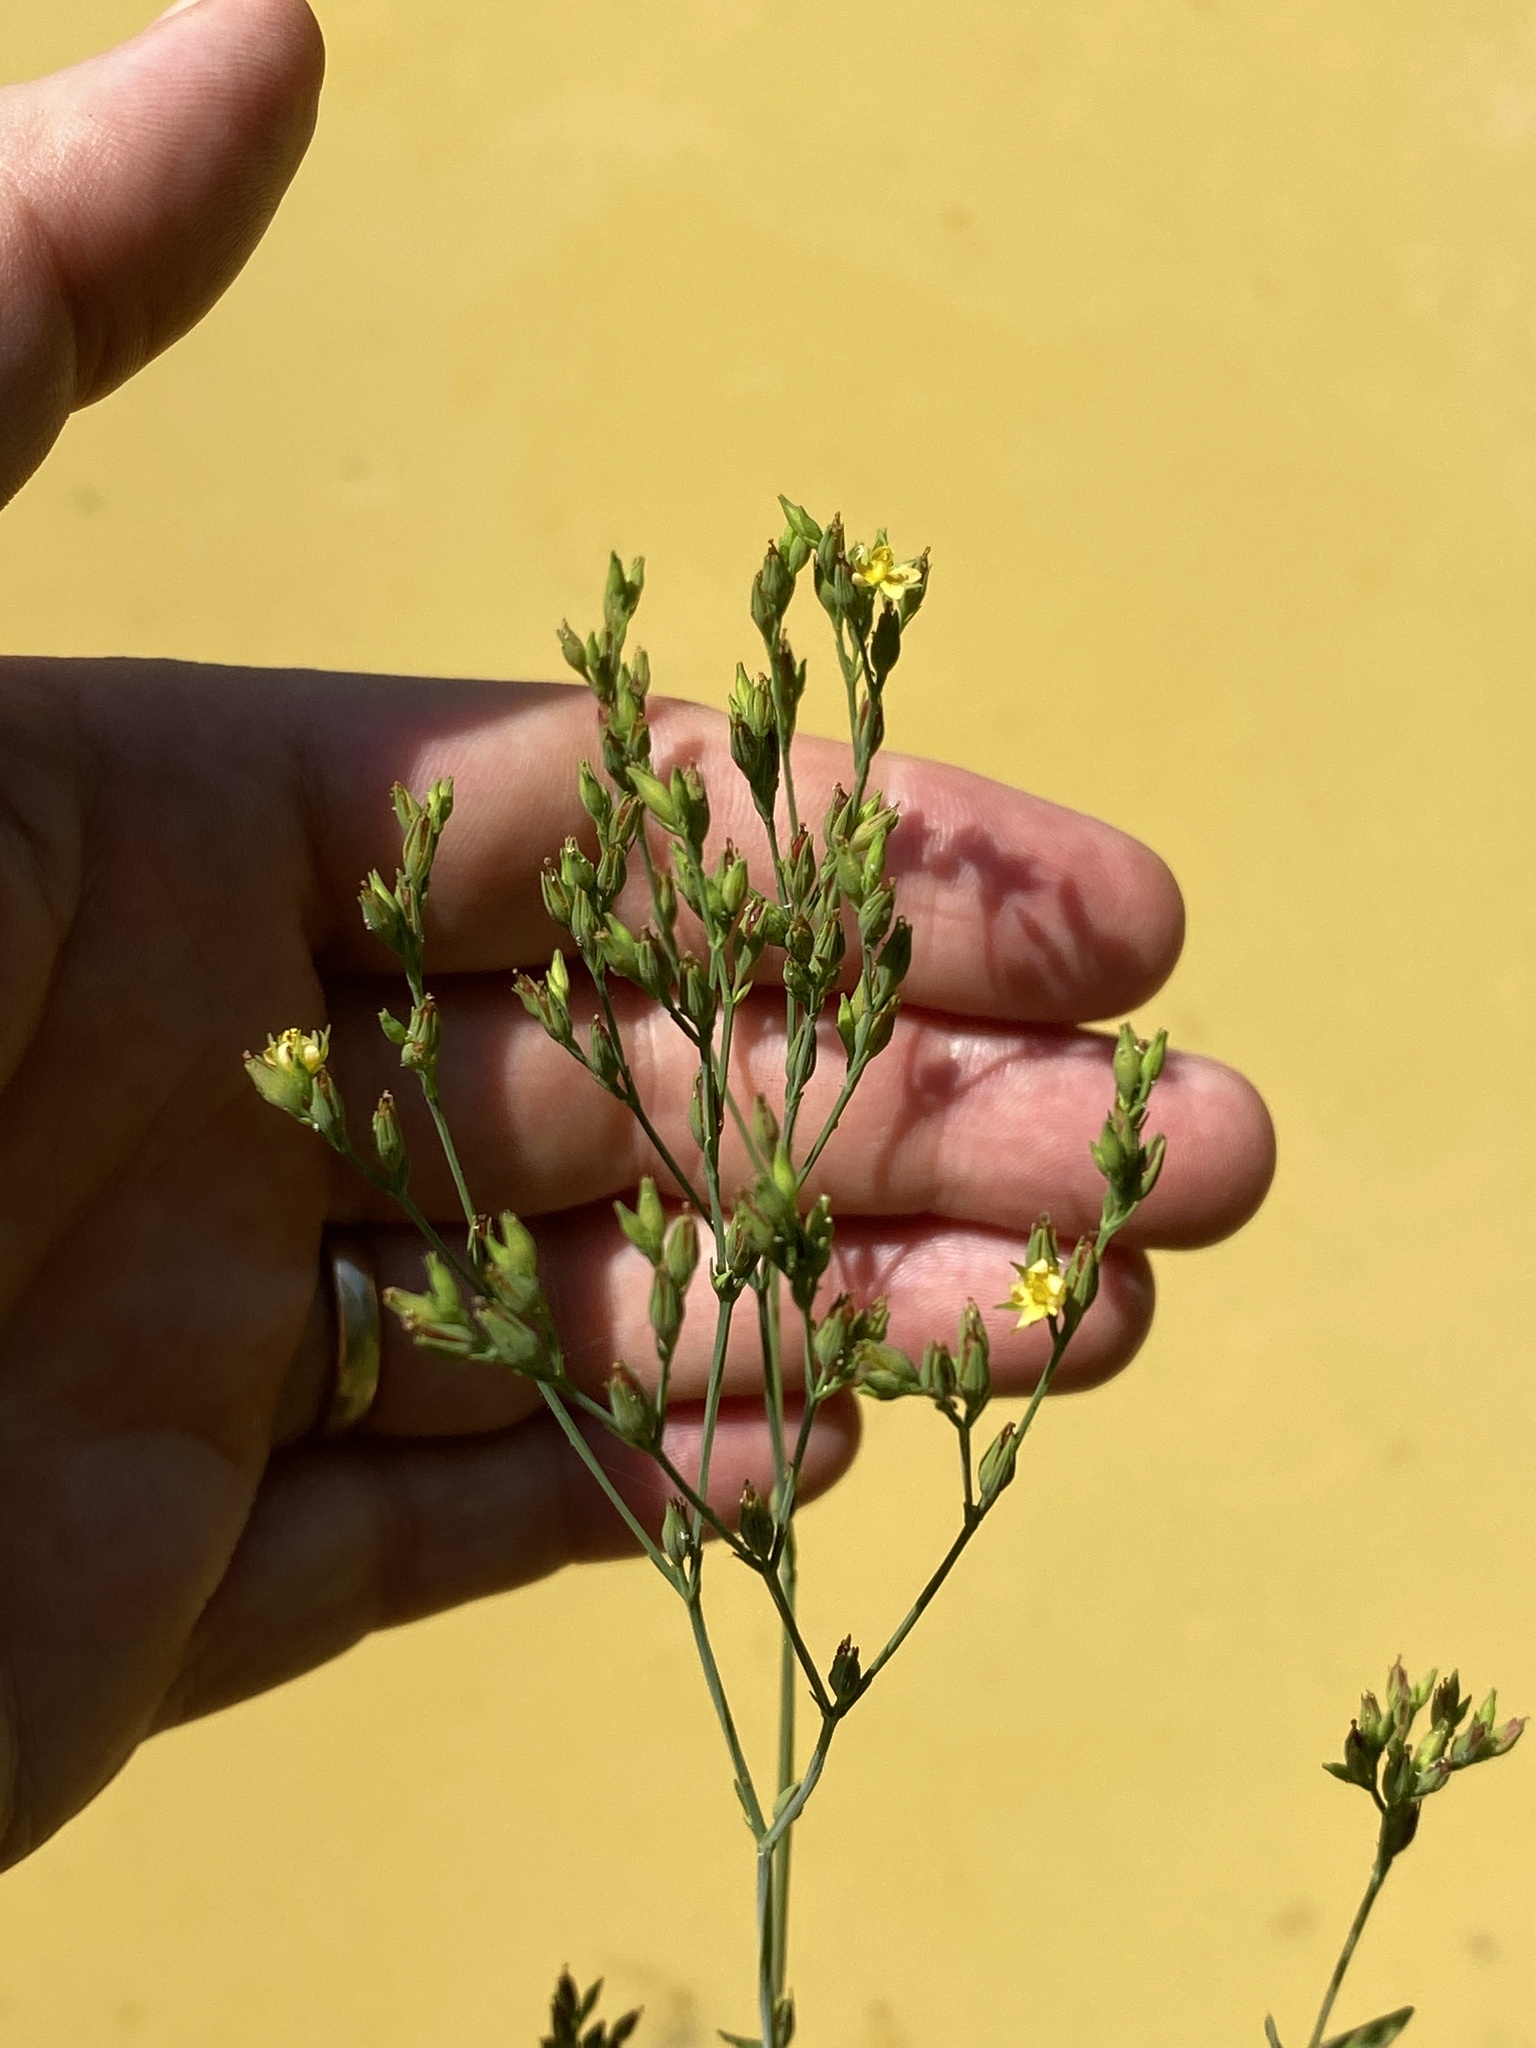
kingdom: Plantae
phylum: Tracheophyta
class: Magnoliopsida
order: Malpighiales
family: Hypericaceae
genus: Hypericum
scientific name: Hypericum gymnanthum
